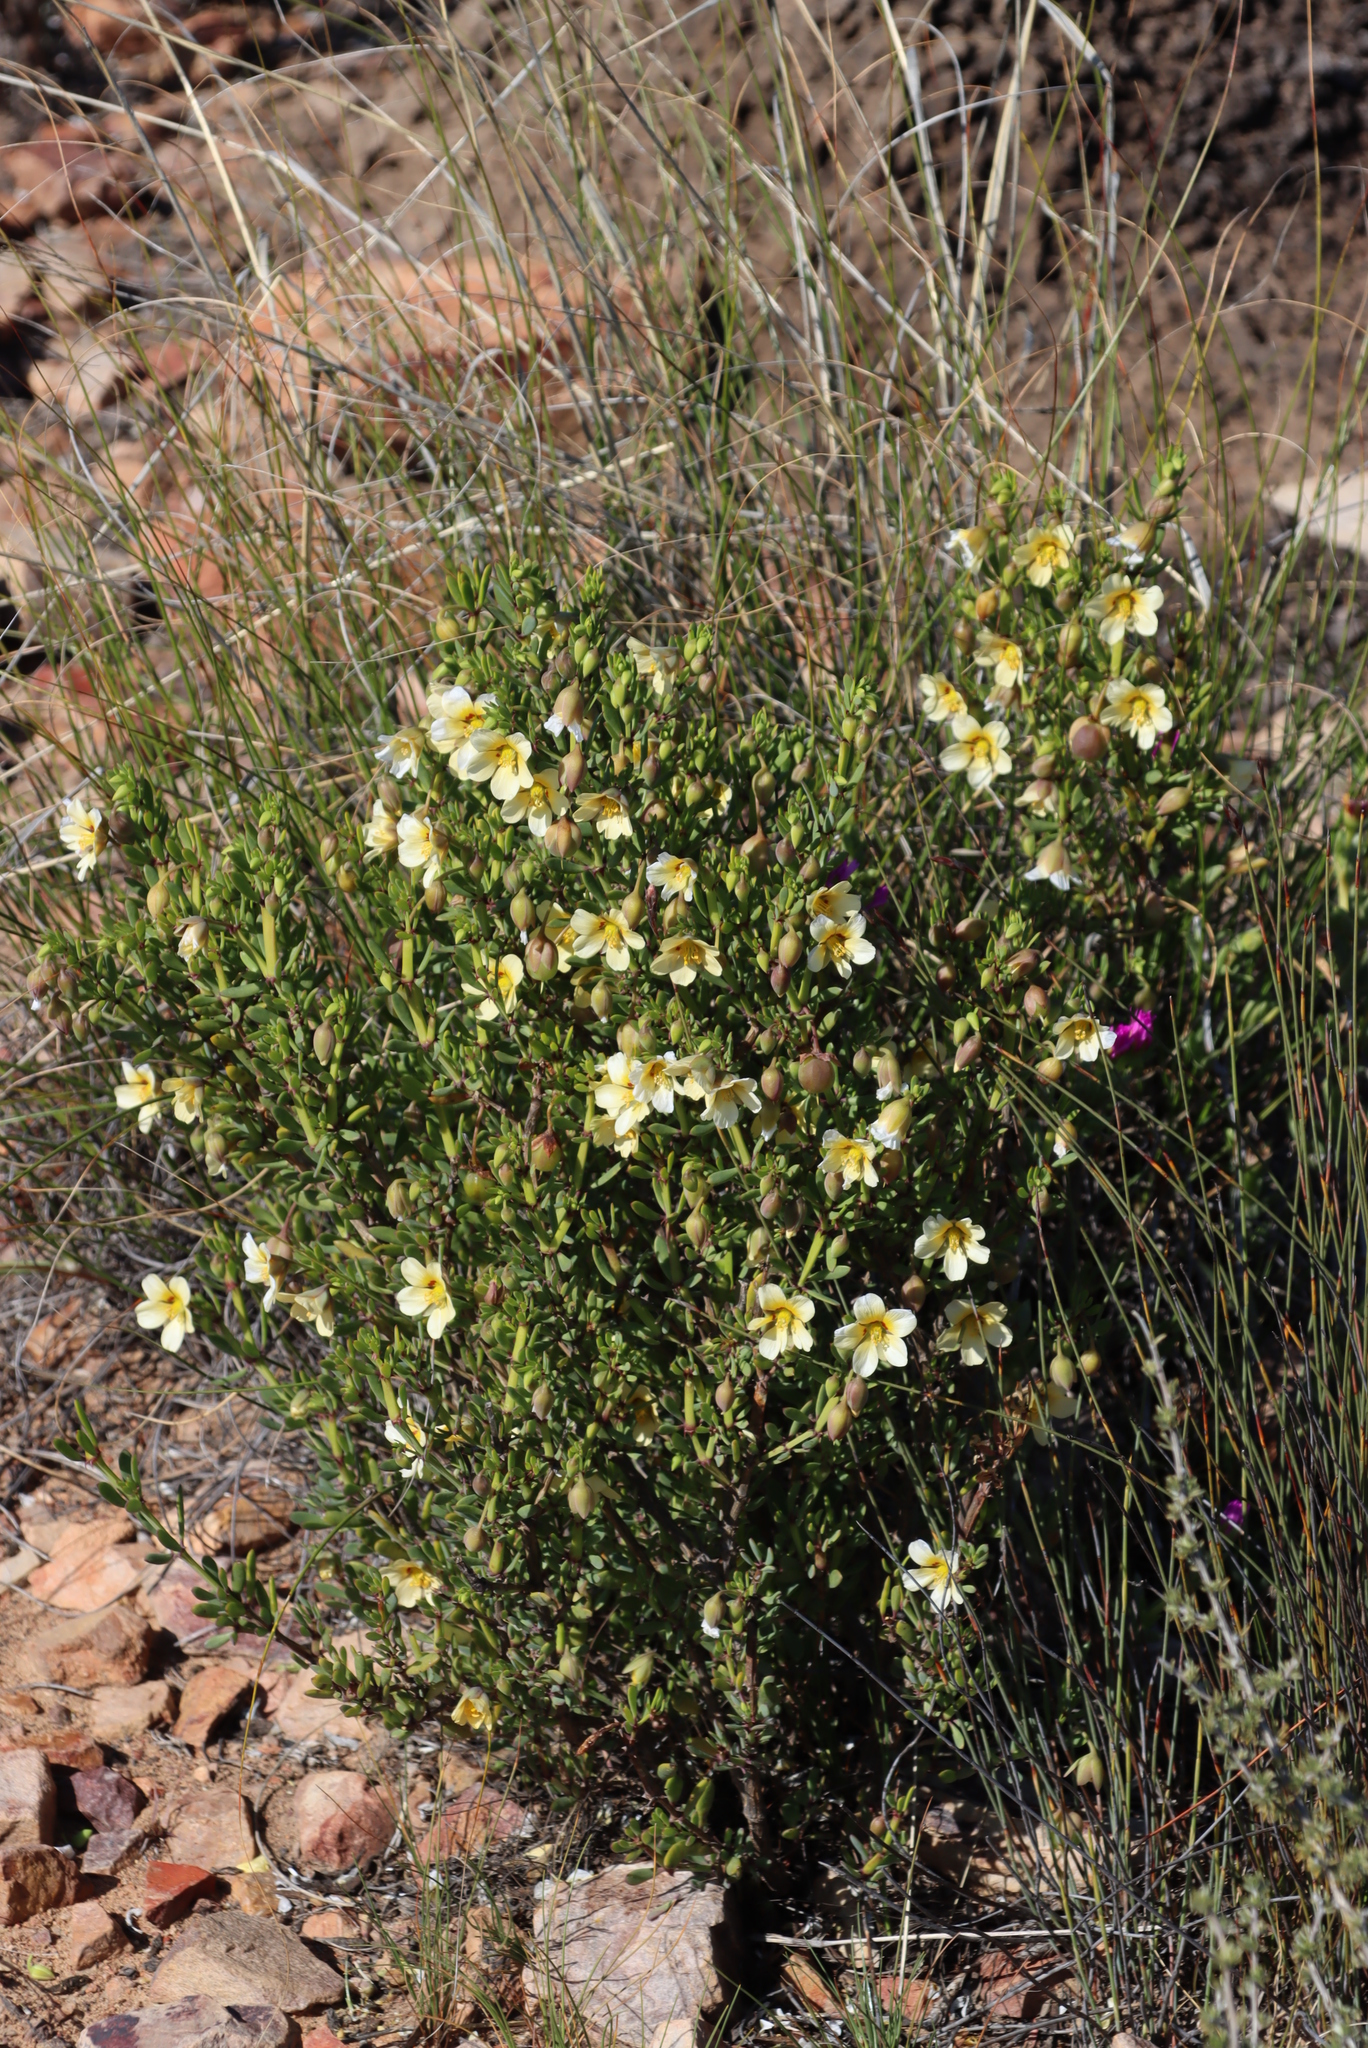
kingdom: Plantae
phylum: Tracheophyta
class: Magnoliopsida
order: Zygophyllales
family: Zygophyllaceae
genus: Roepera
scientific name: Roepera fulva
